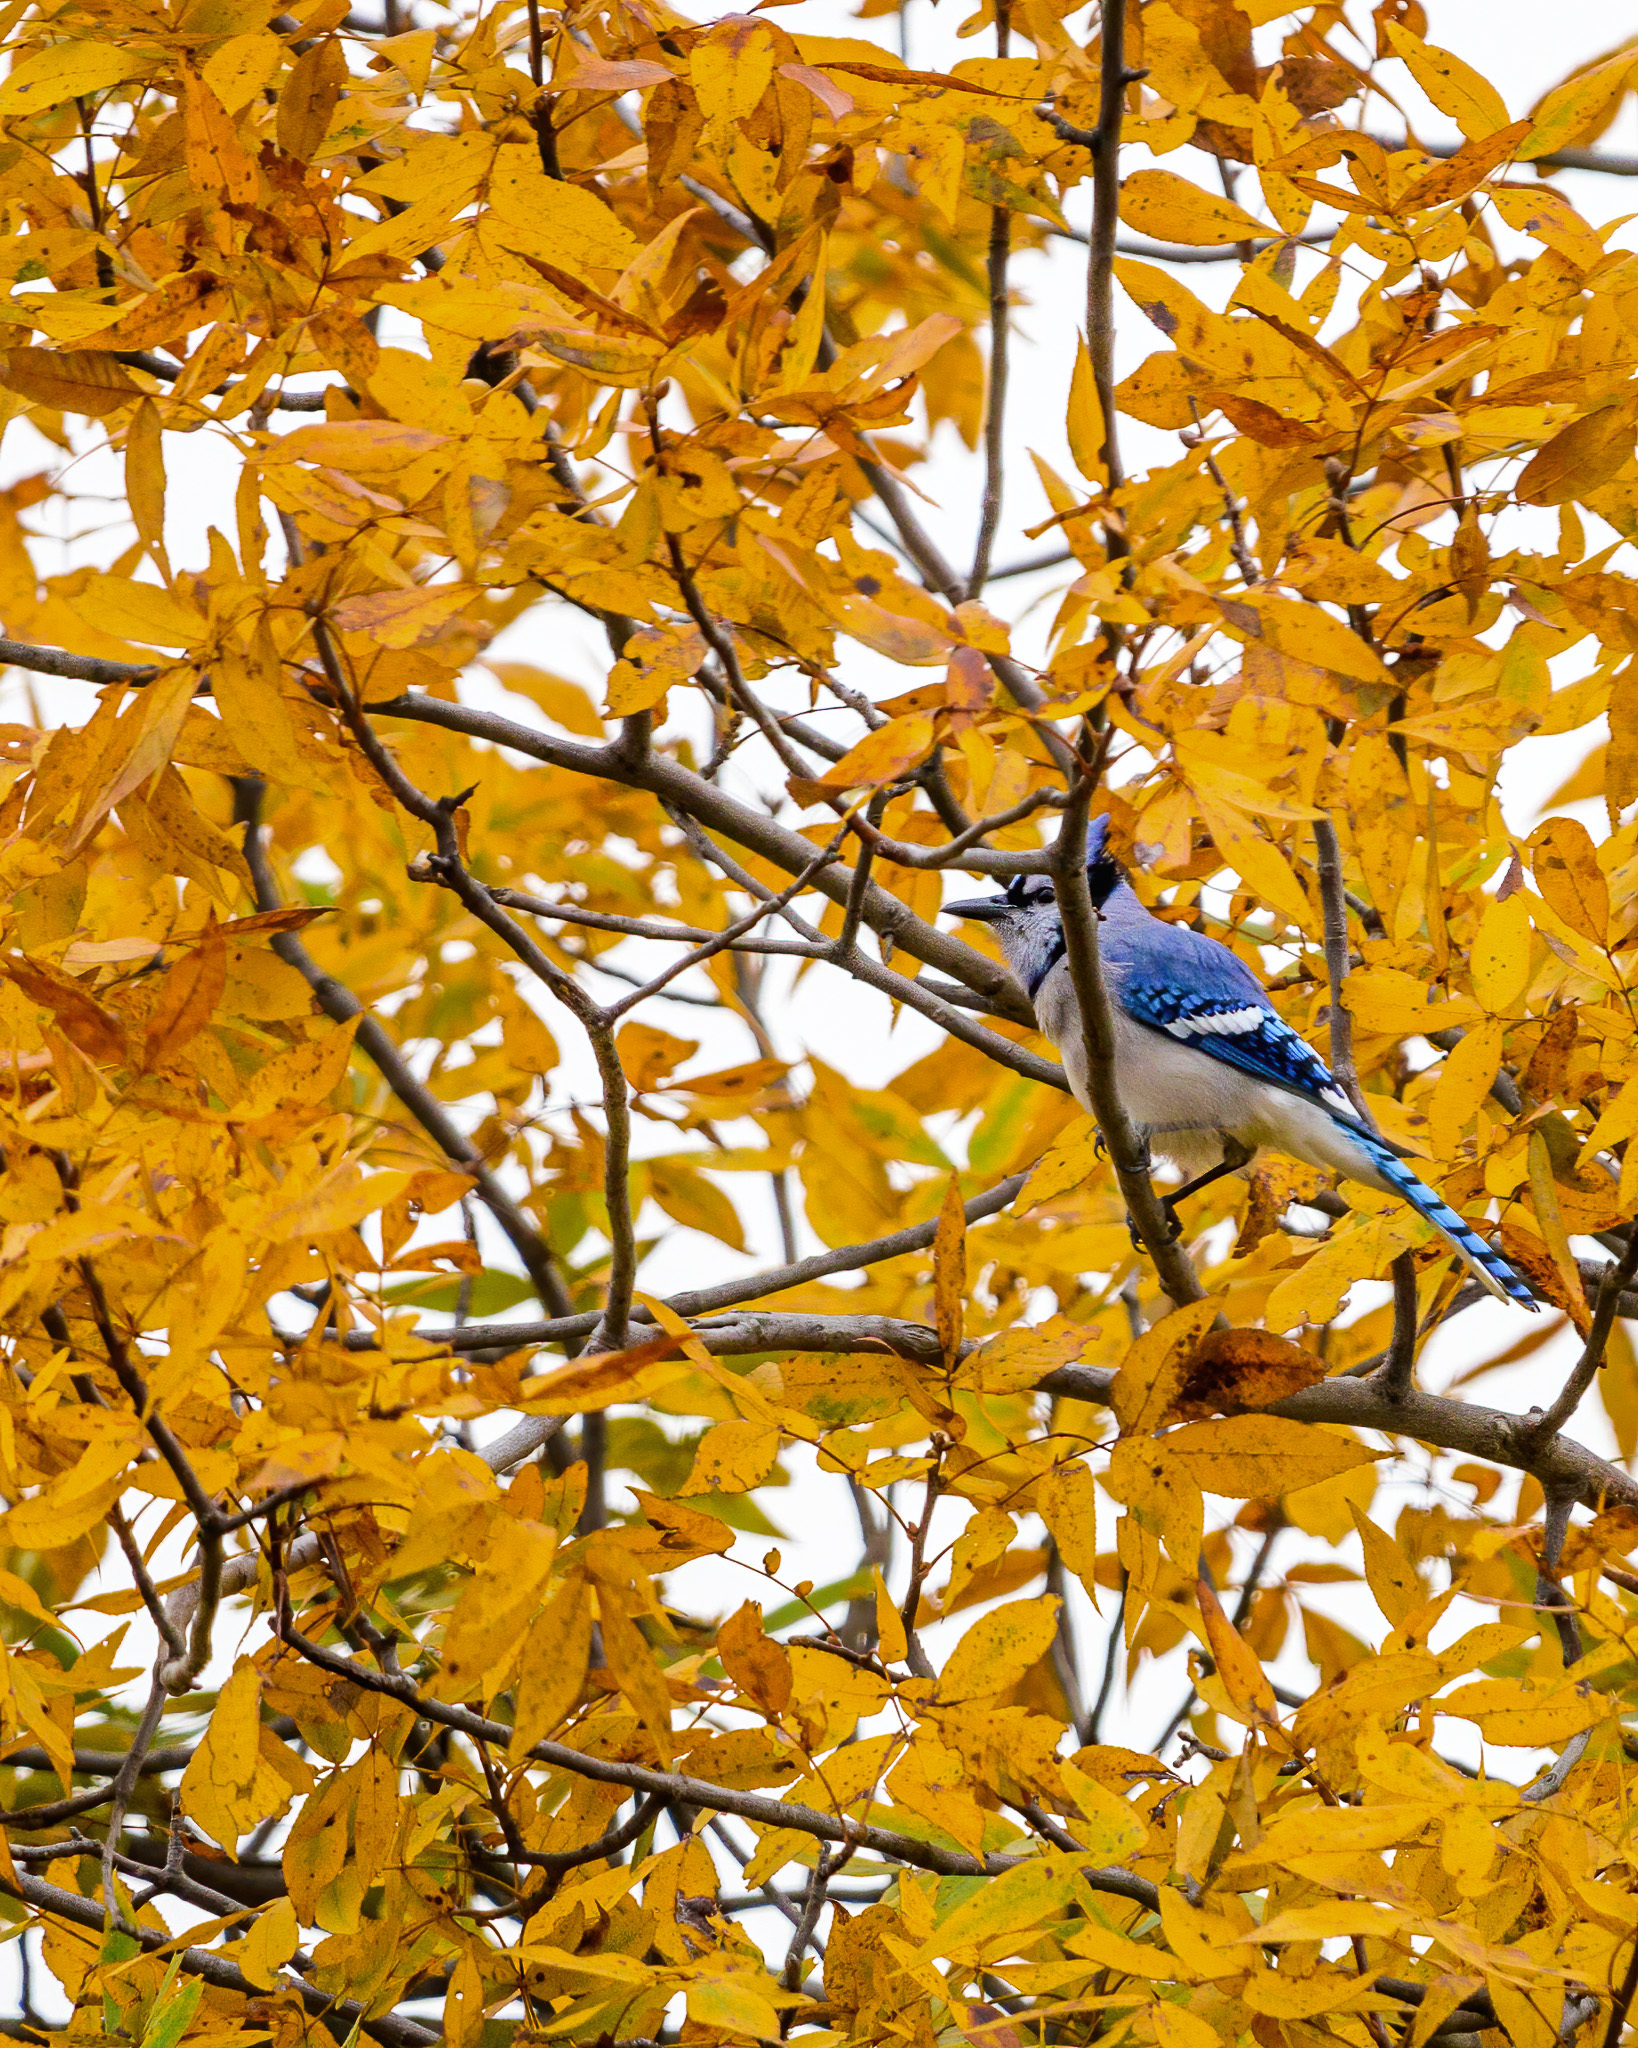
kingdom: Animalia
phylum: Chordata
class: Aves
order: Passeriformes
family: Corvidae
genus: Cyanocitta
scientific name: Cyanocitta cristata
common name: Blue jay
